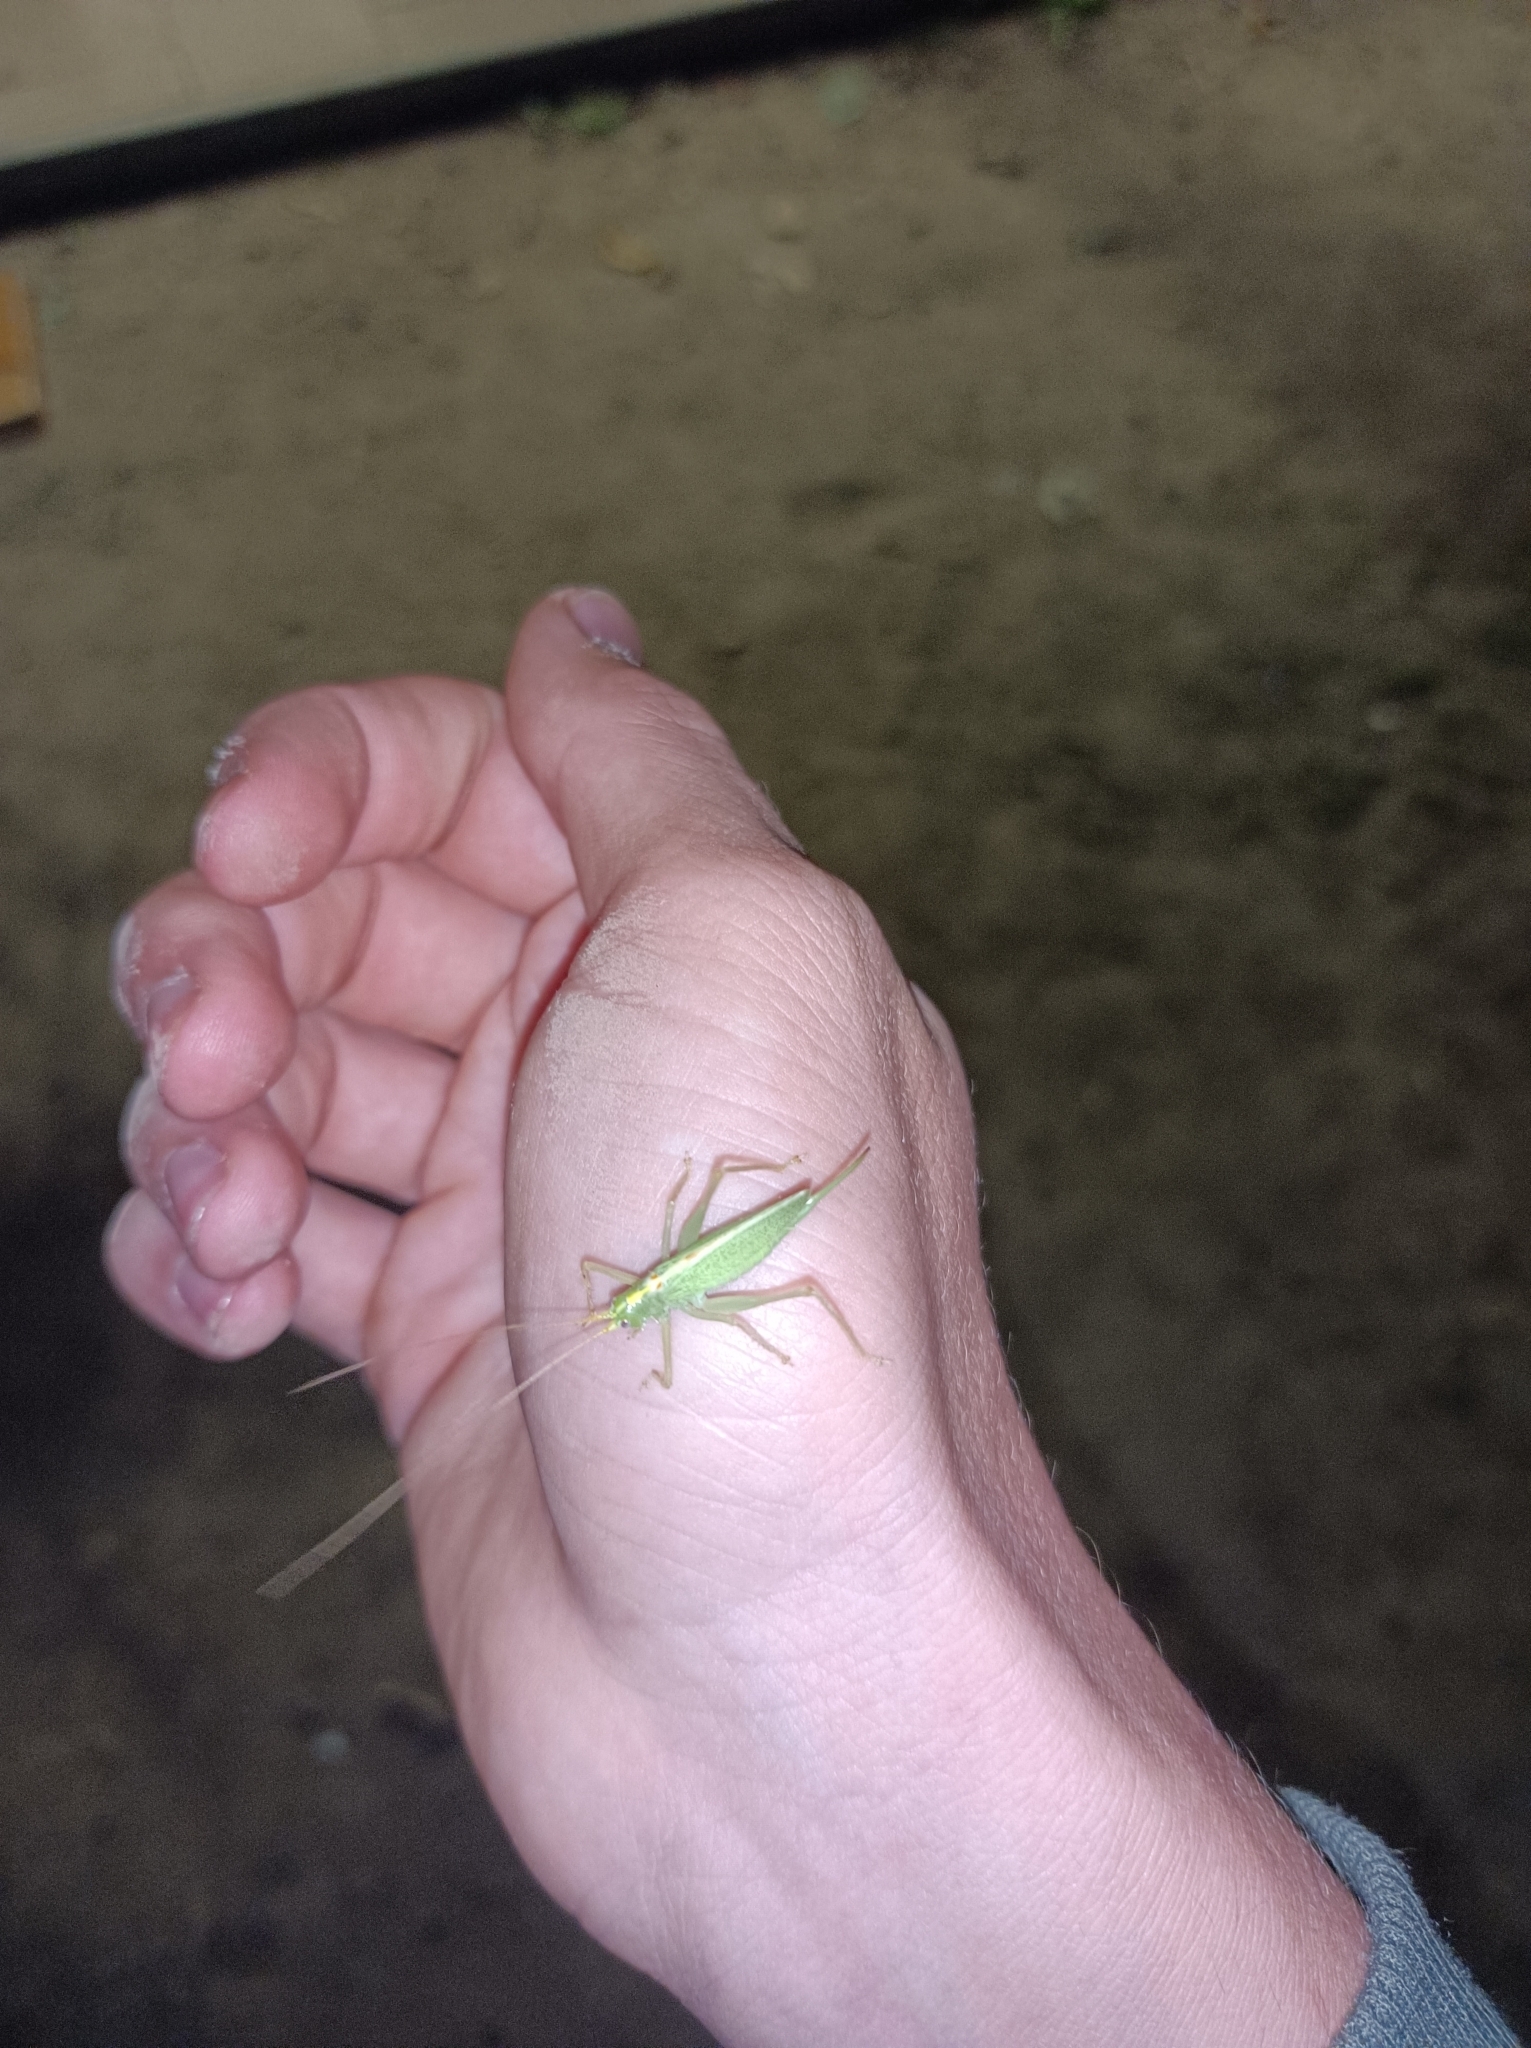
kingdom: Animalia
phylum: Arthropoda
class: Insecta
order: Orthoptera
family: Tettigoniidae
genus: Meconema
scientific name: Meconema thalassinum
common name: Oak bush-cricket
